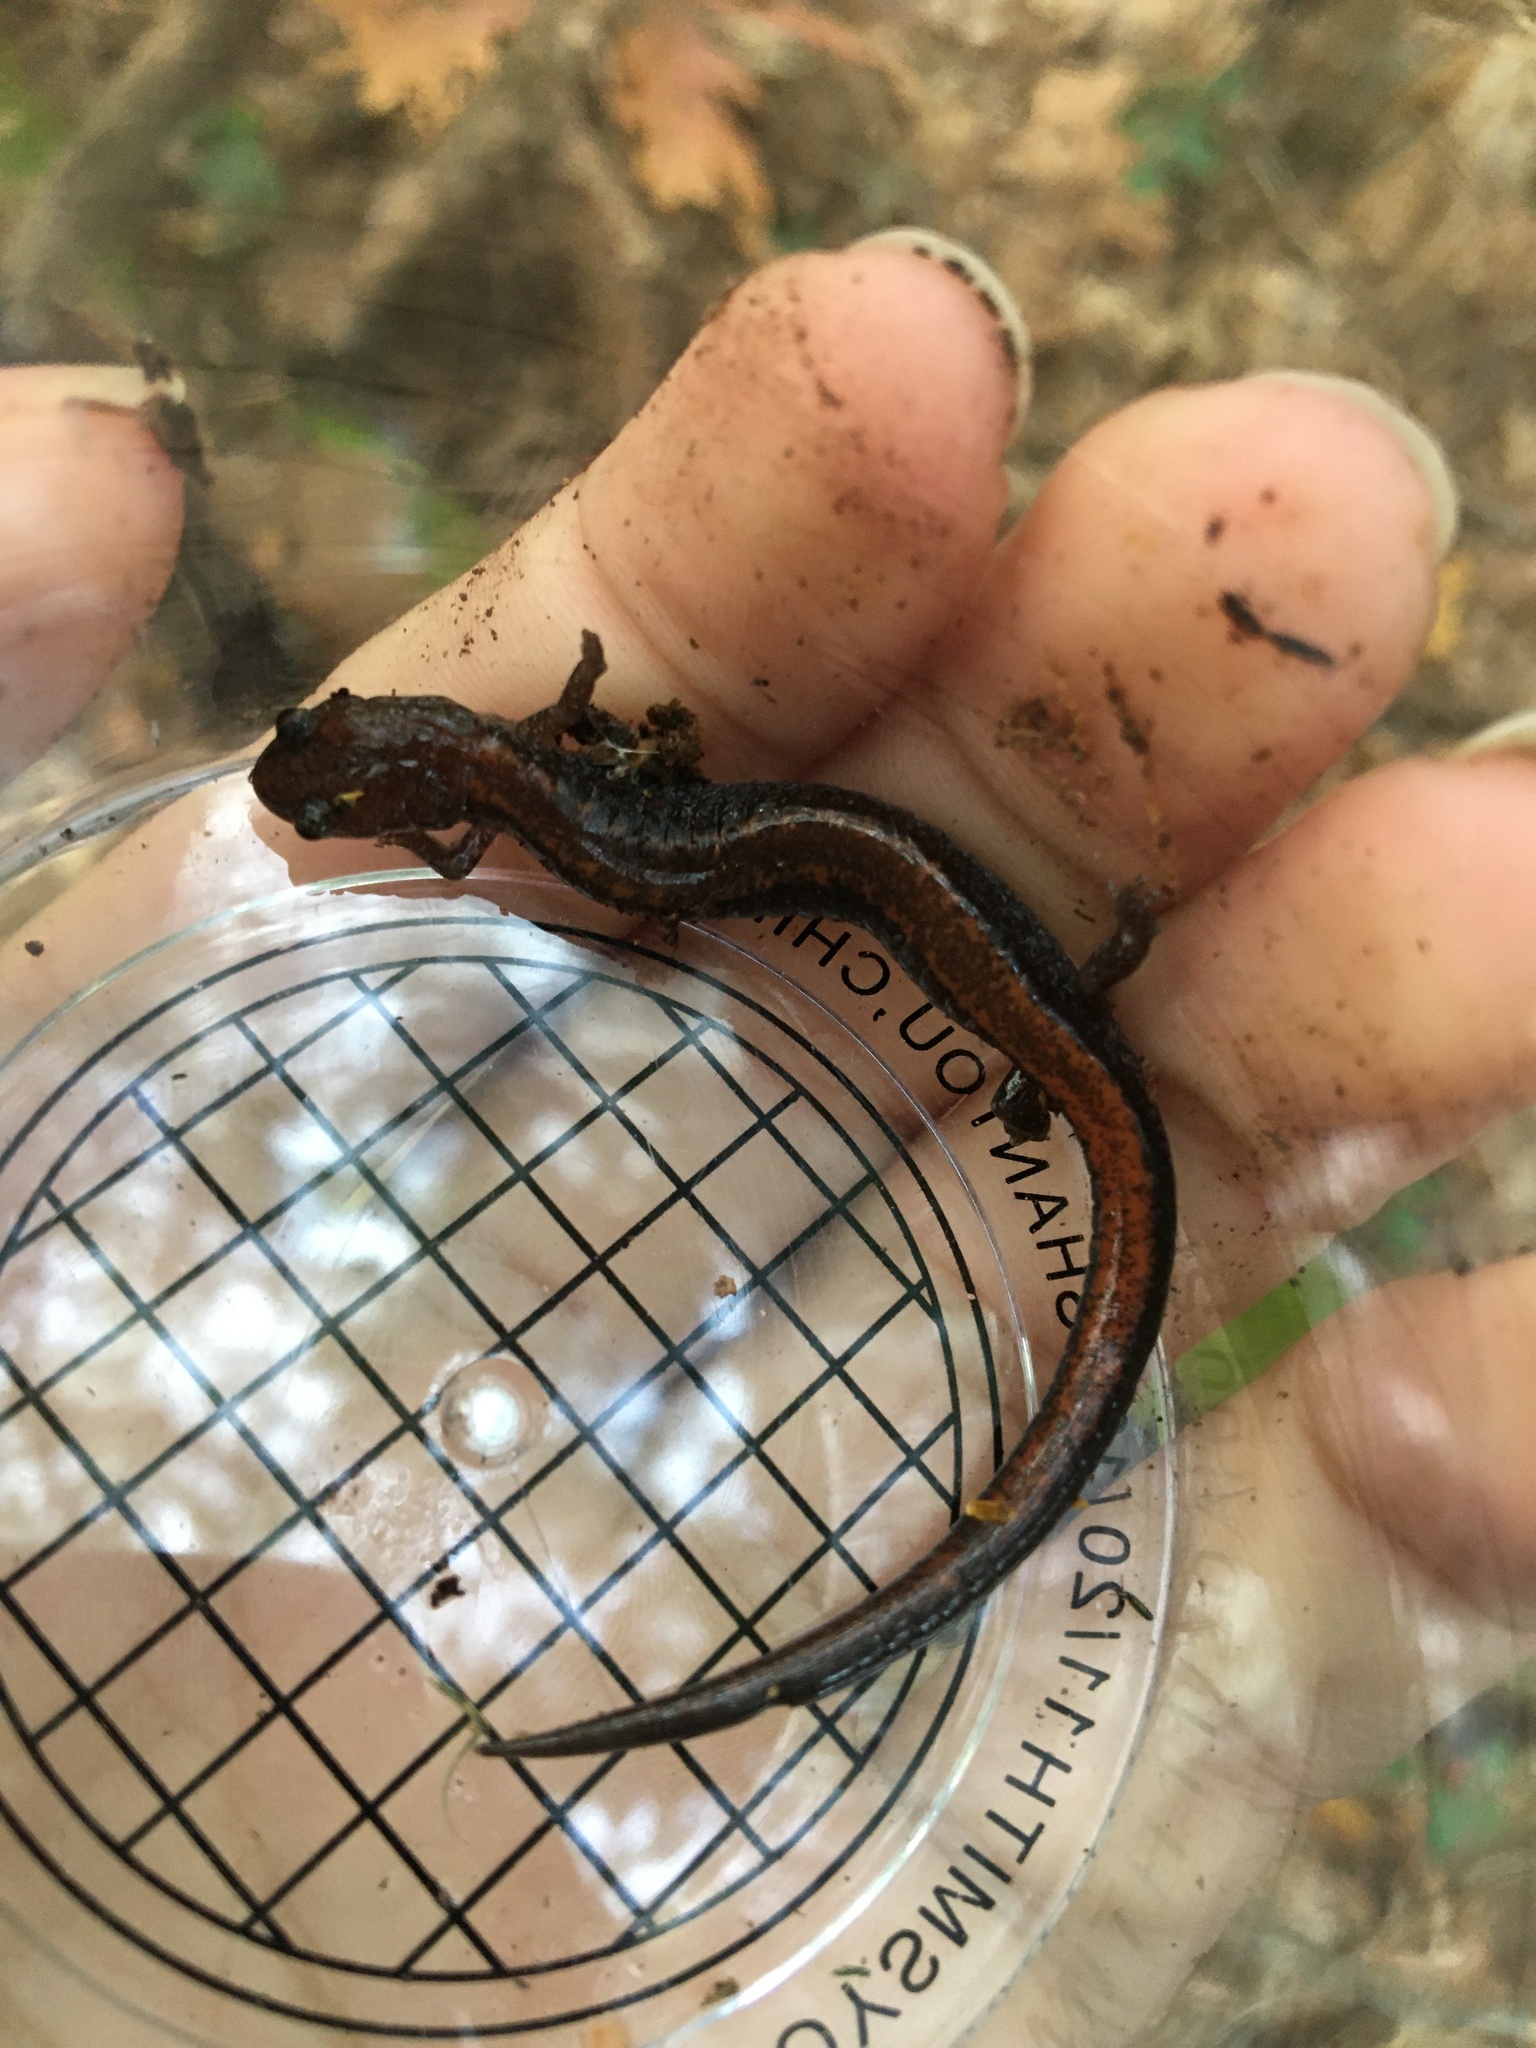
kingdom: Animalia
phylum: Chordata
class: Amphibia
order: Caudata
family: Plethodontidae
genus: Plethodon
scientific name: Plethodon cinereus
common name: Redback salamander
